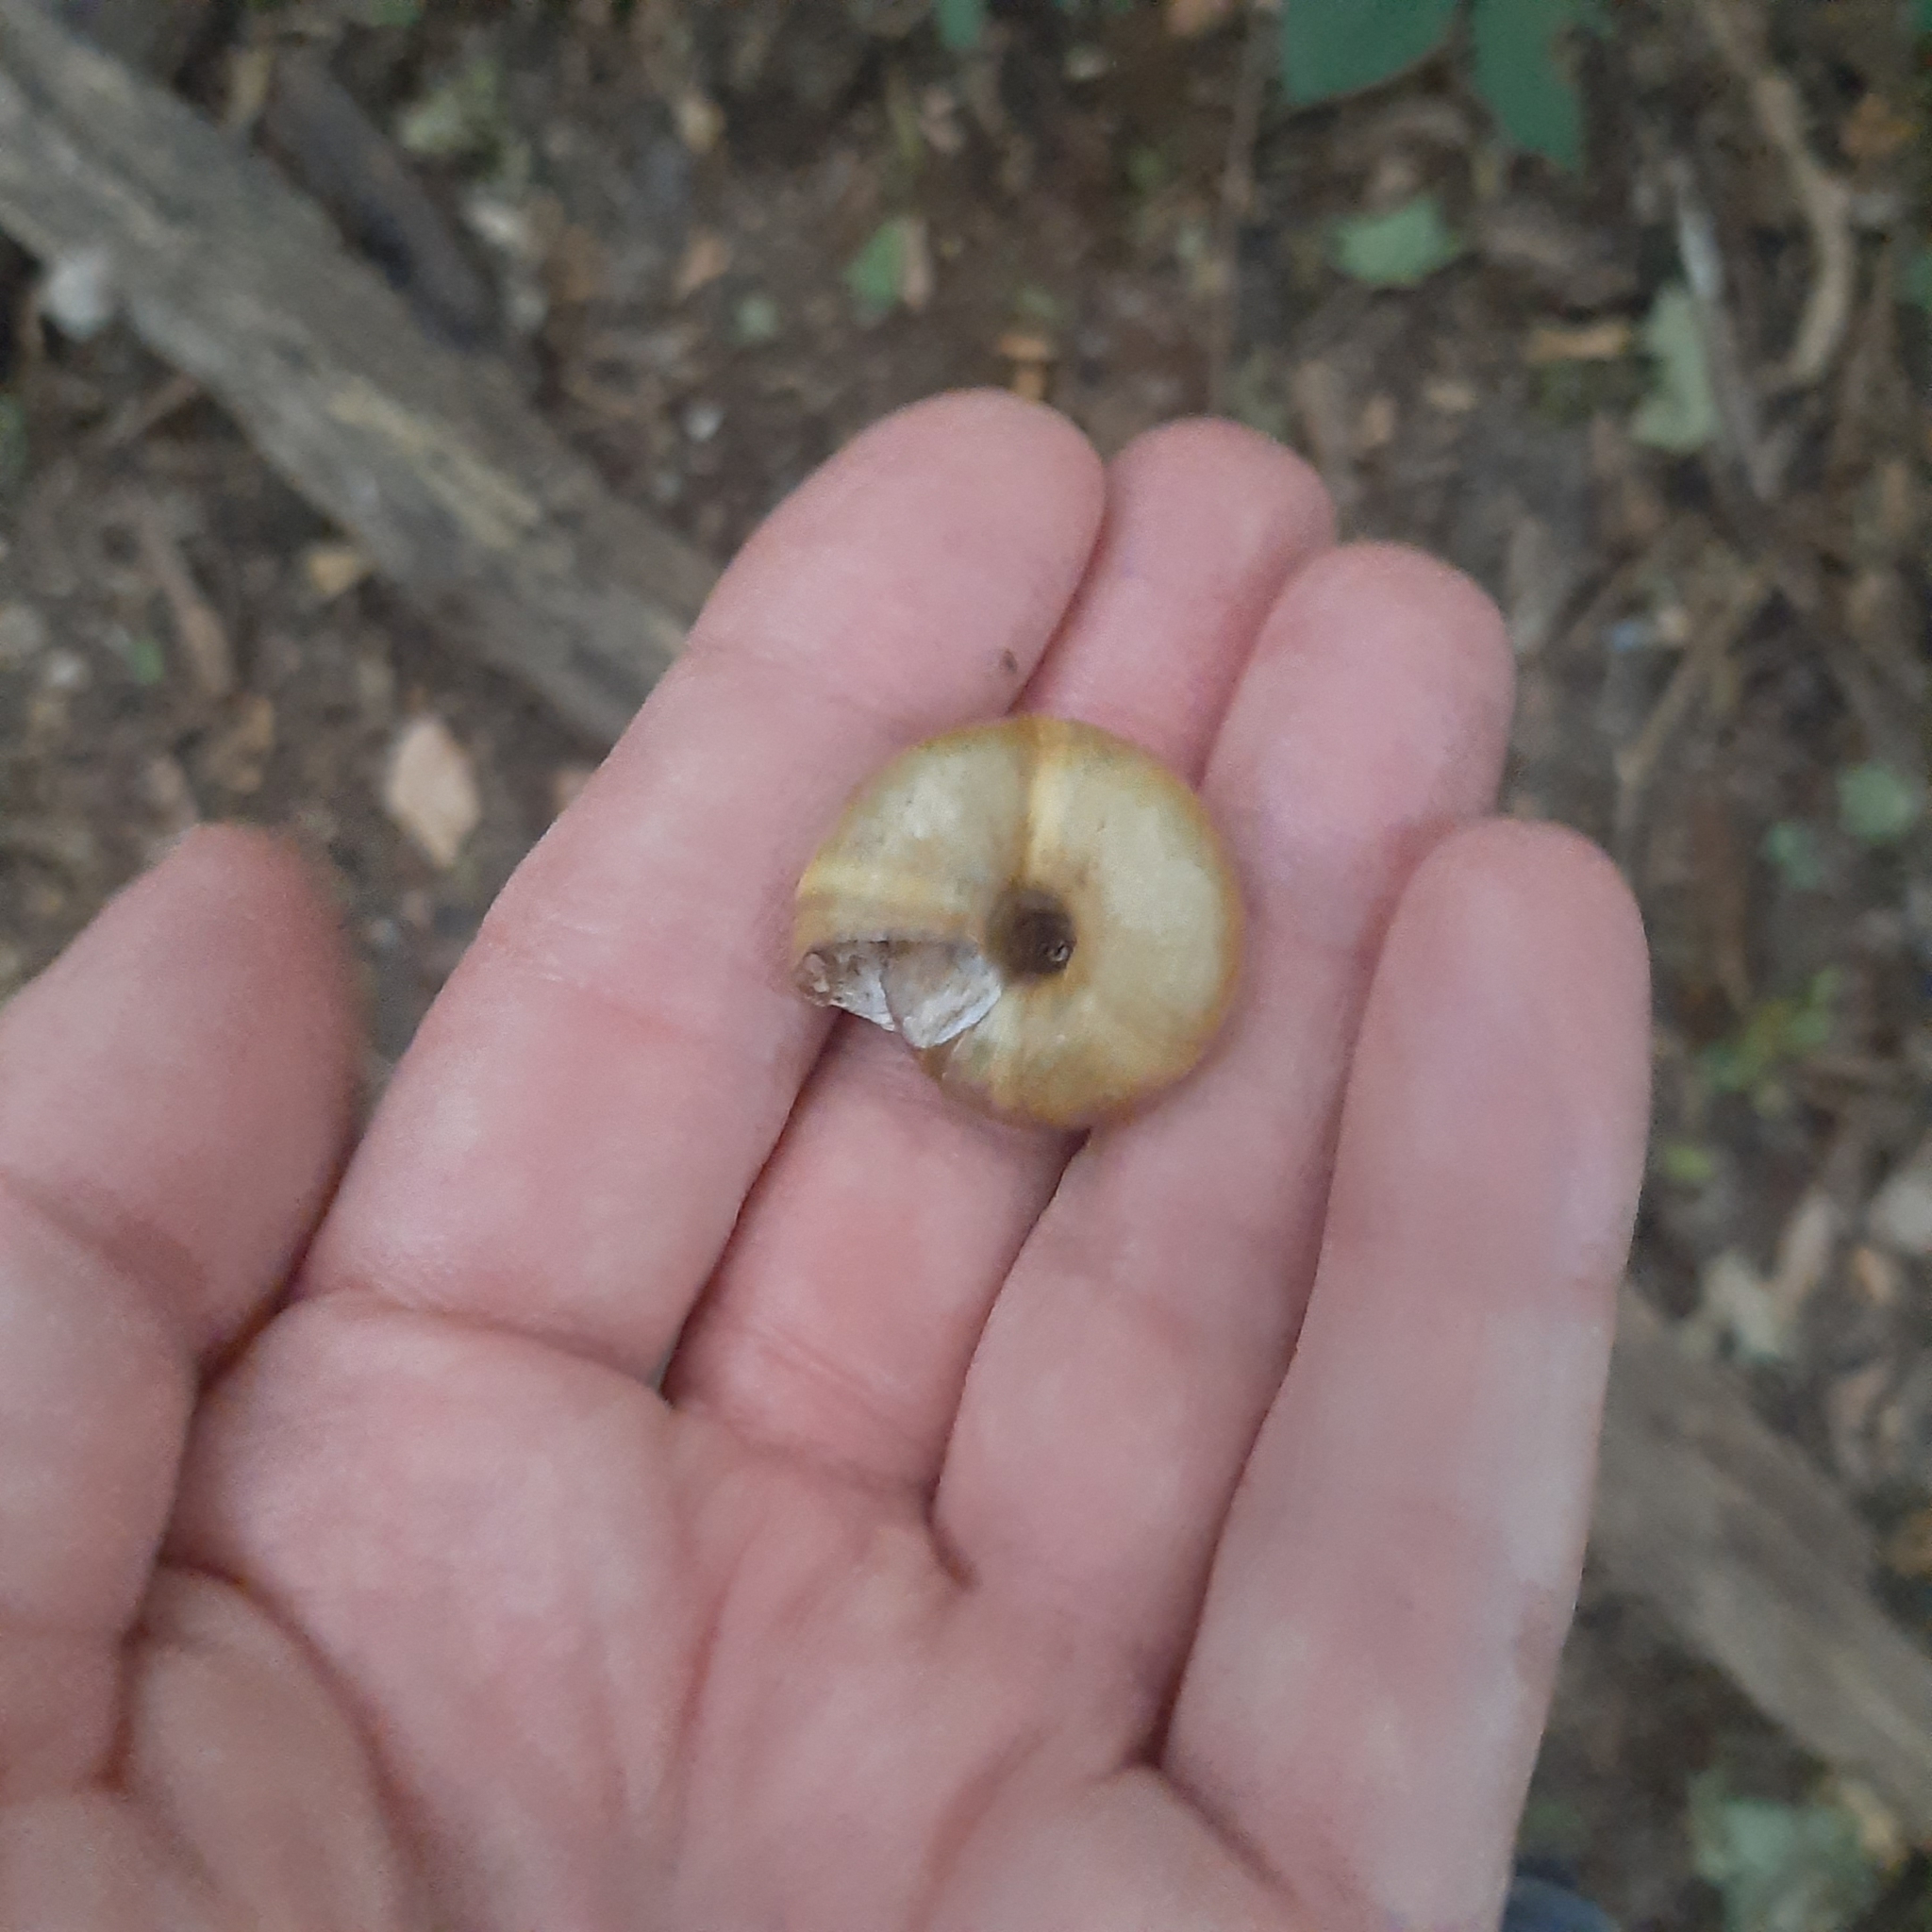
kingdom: Animalia
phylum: Mollusca
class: Gastropoda
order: Stylommatophora
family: Zonitidae
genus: Aegopis
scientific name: Aegopis verticillus
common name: Giant glass snail
